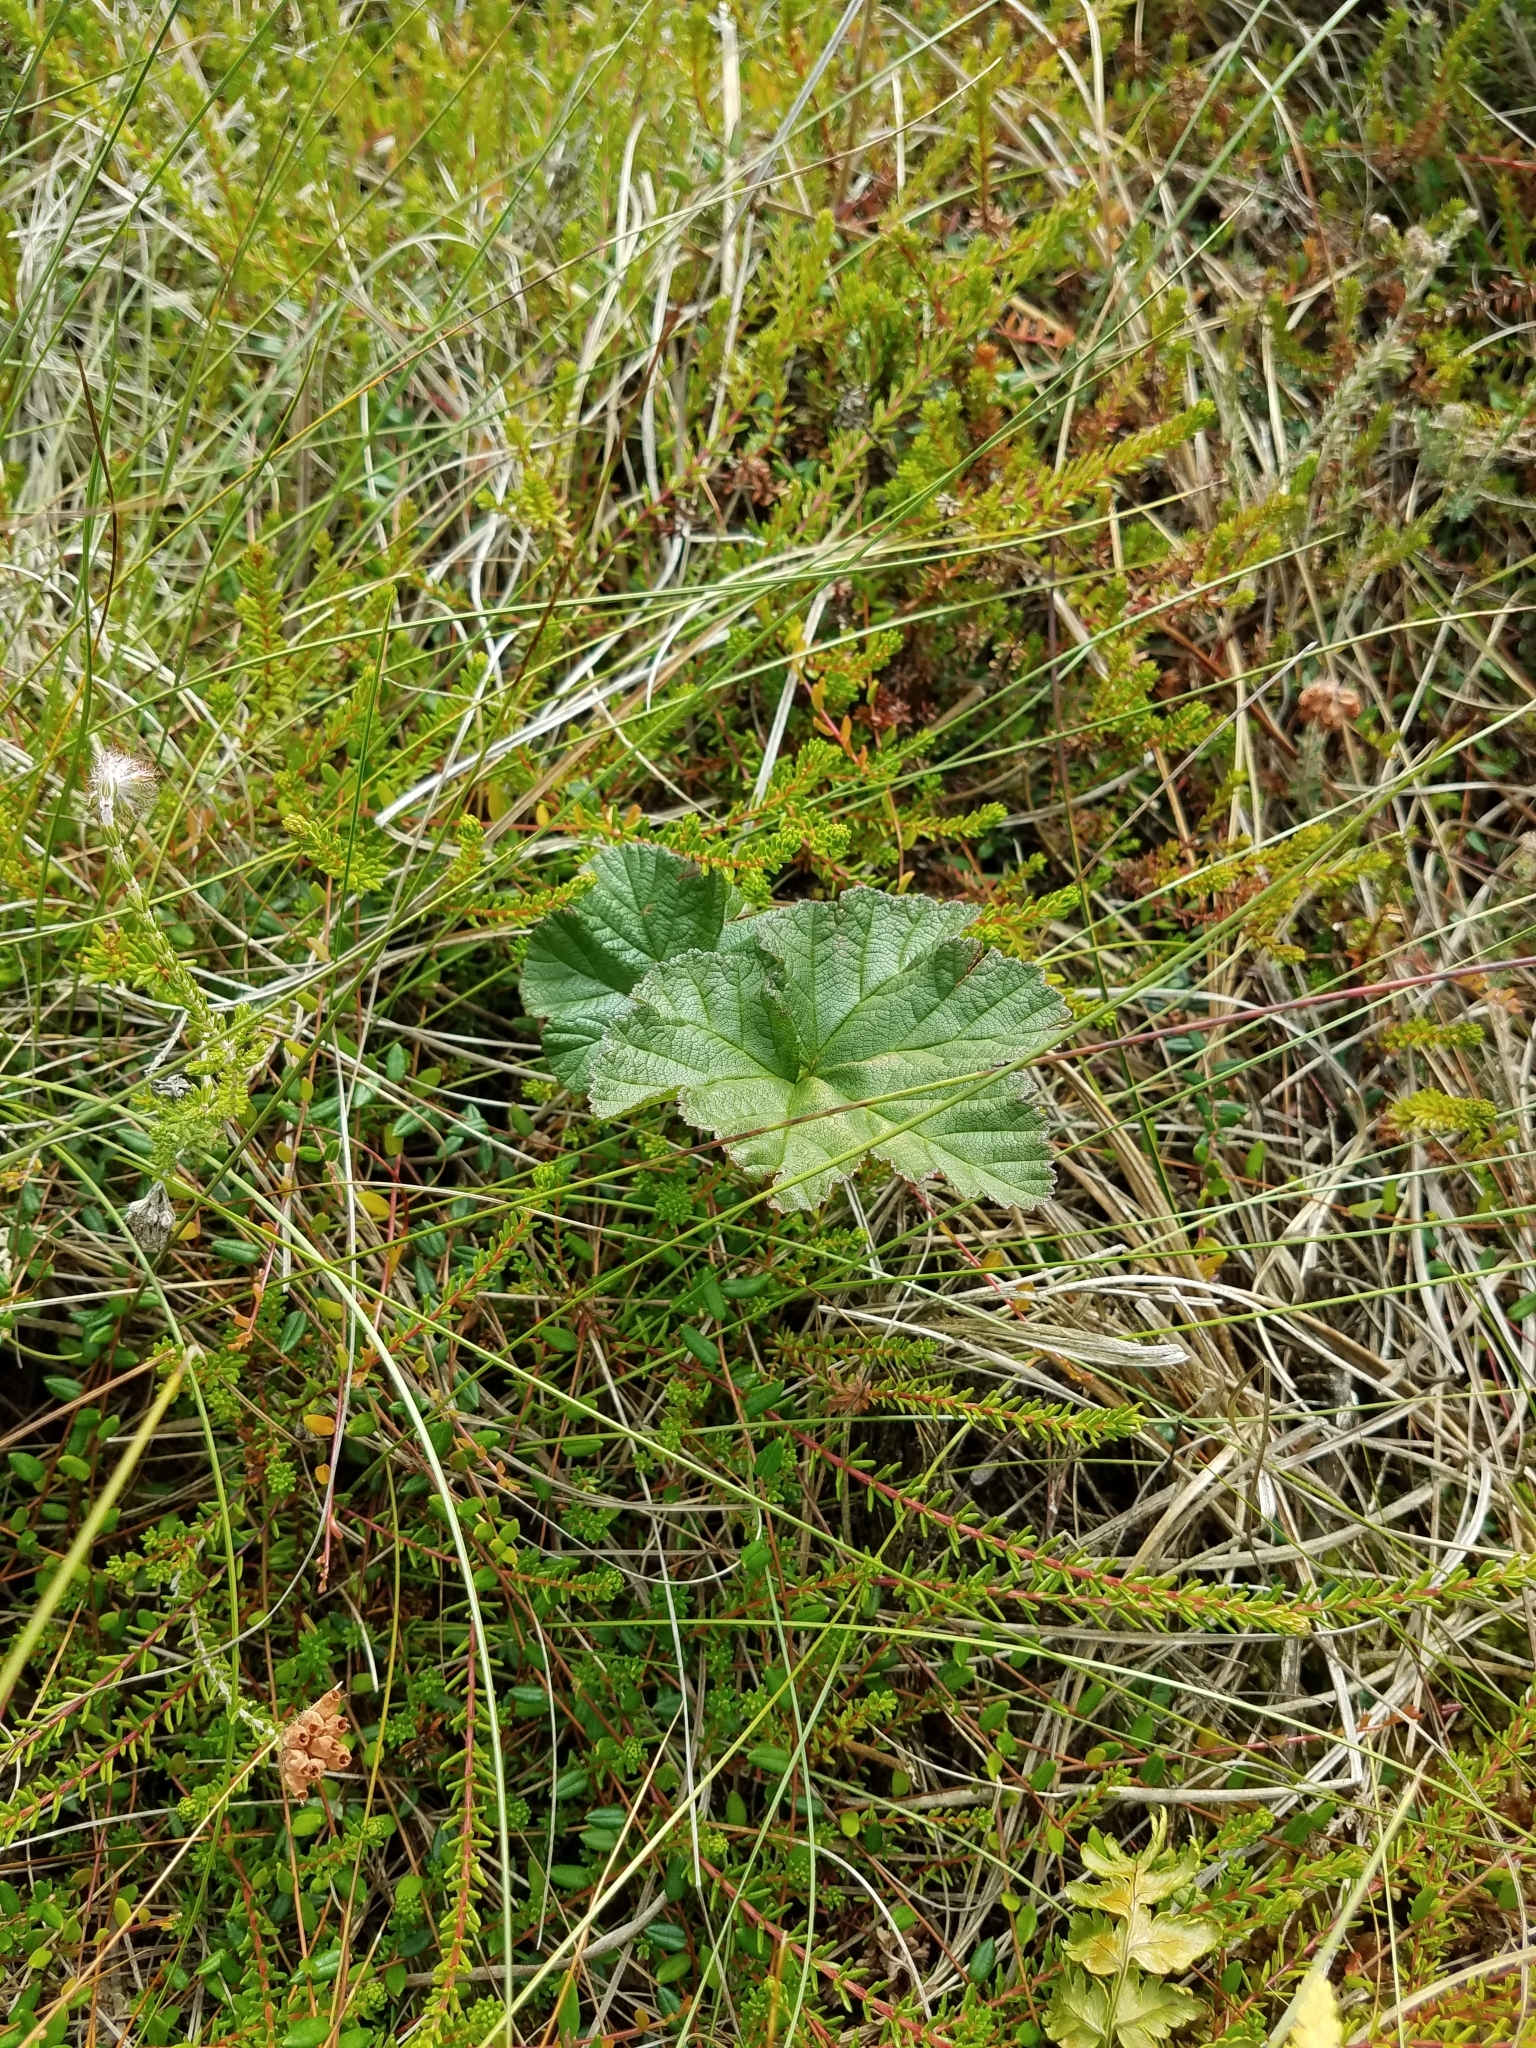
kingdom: Plantae
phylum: Tracheophyta
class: Magnoliopsida
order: Rosales
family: Rosaceae
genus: Rubus
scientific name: Rubus chamaemorus
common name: Cloudberry
